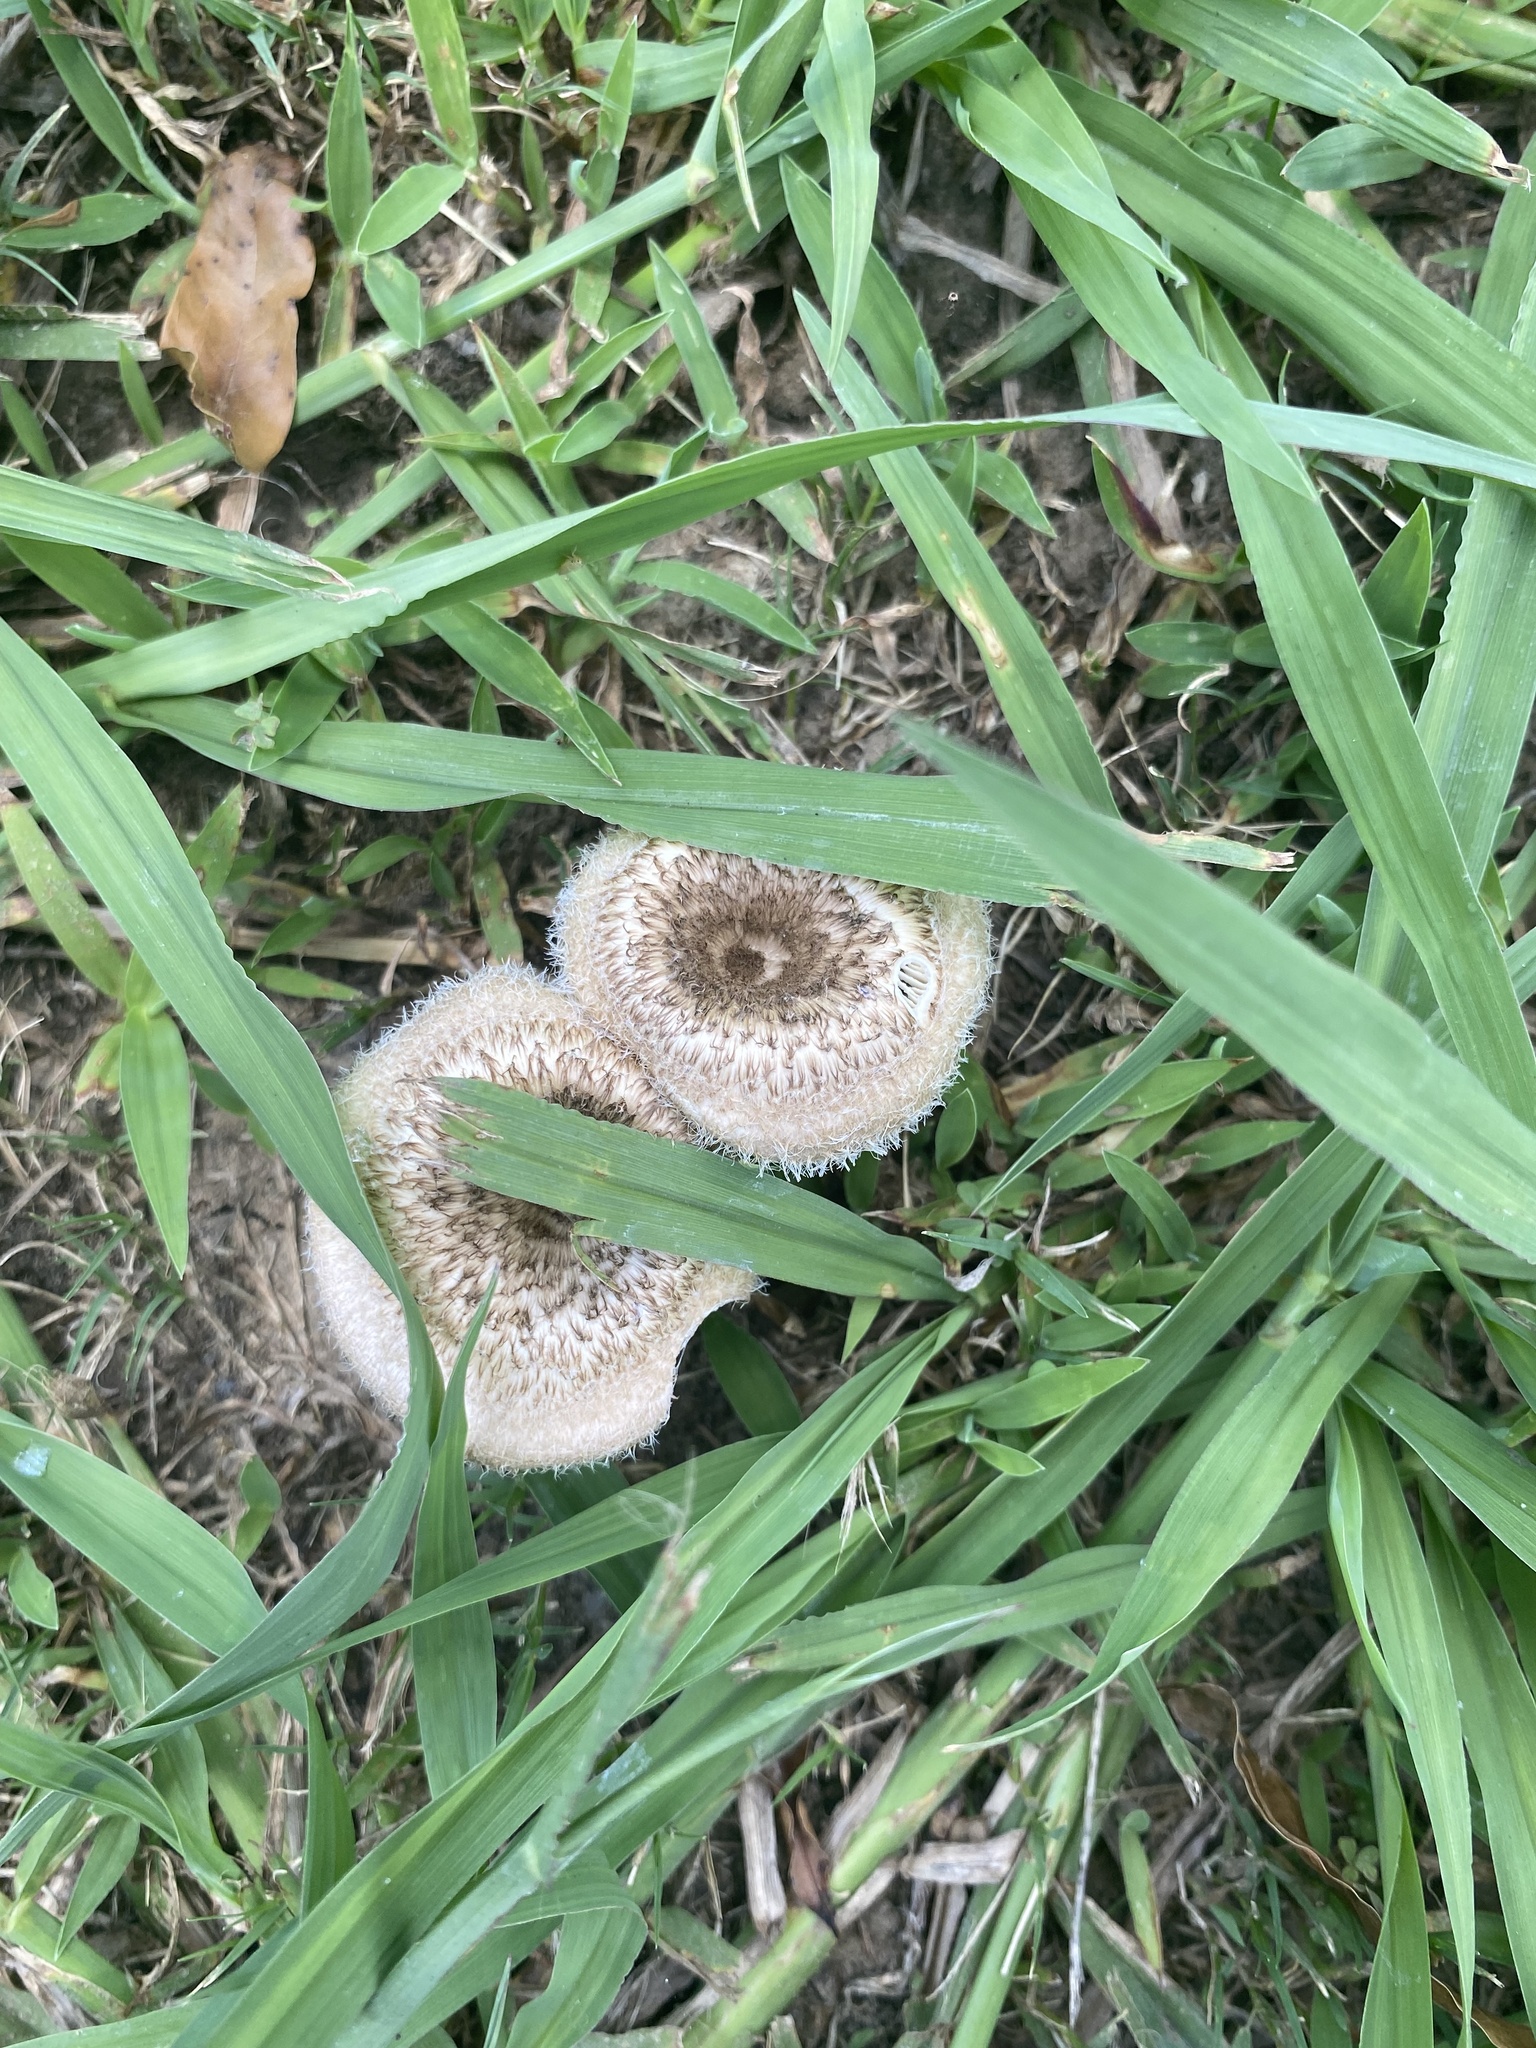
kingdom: Fungi
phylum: Basidiomycota
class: Agaricomycetes
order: Polyporales
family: Polyporaceae
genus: Lentinus
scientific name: Lentinus crinitus
